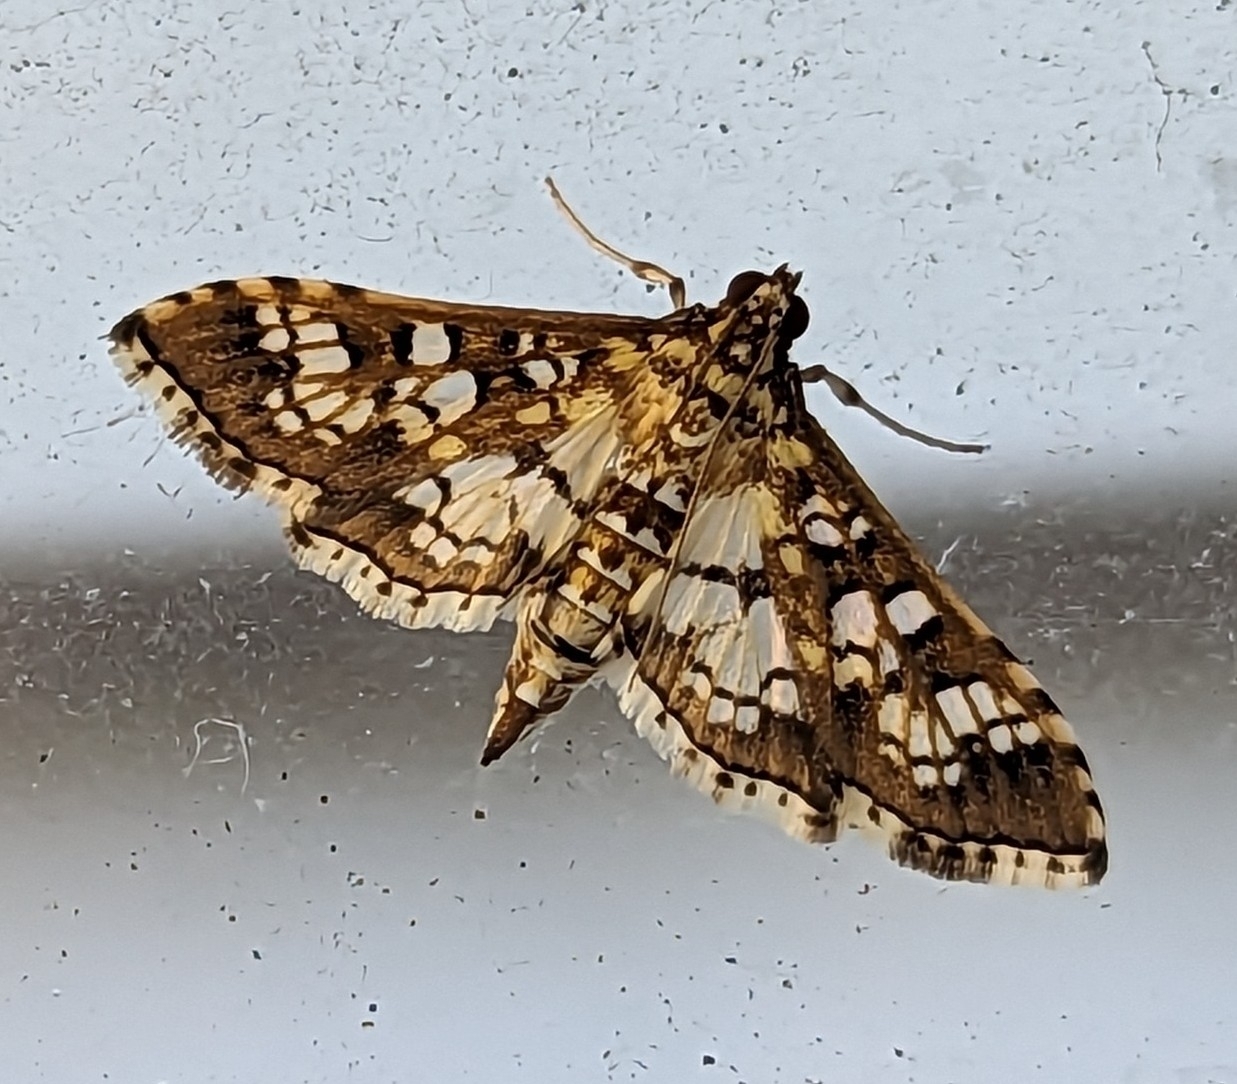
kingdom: Animalia
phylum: Arthropoda
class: Insecta
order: Lepidoptera
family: Crambidae
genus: Samea
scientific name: Samea ecclesialis
